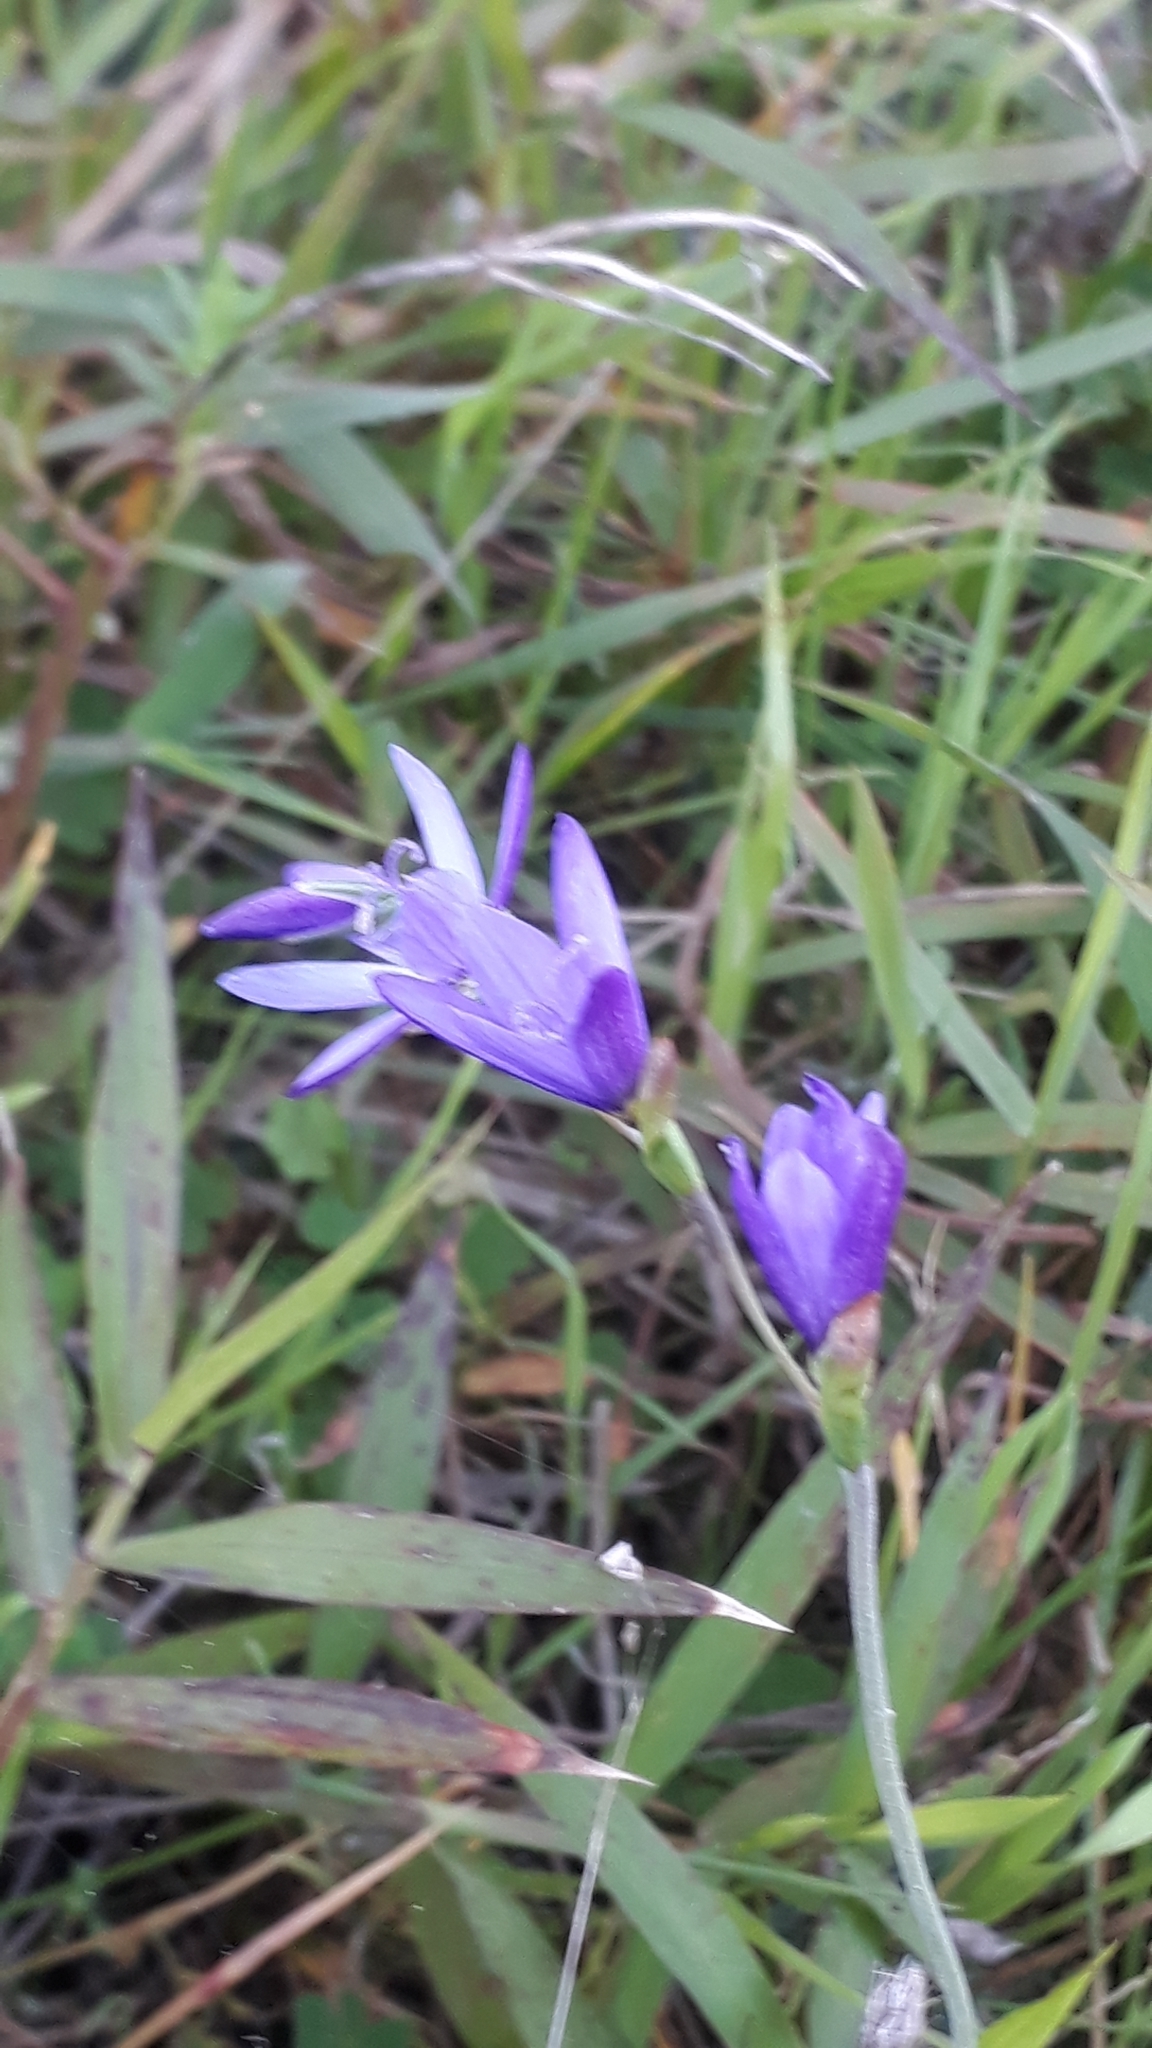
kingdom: Plantae
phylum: Tracheophyta
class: Liliopsida
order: Asparagales
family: Iridaceae
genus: Geissorhiza
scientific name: Geissorhiza aspera
